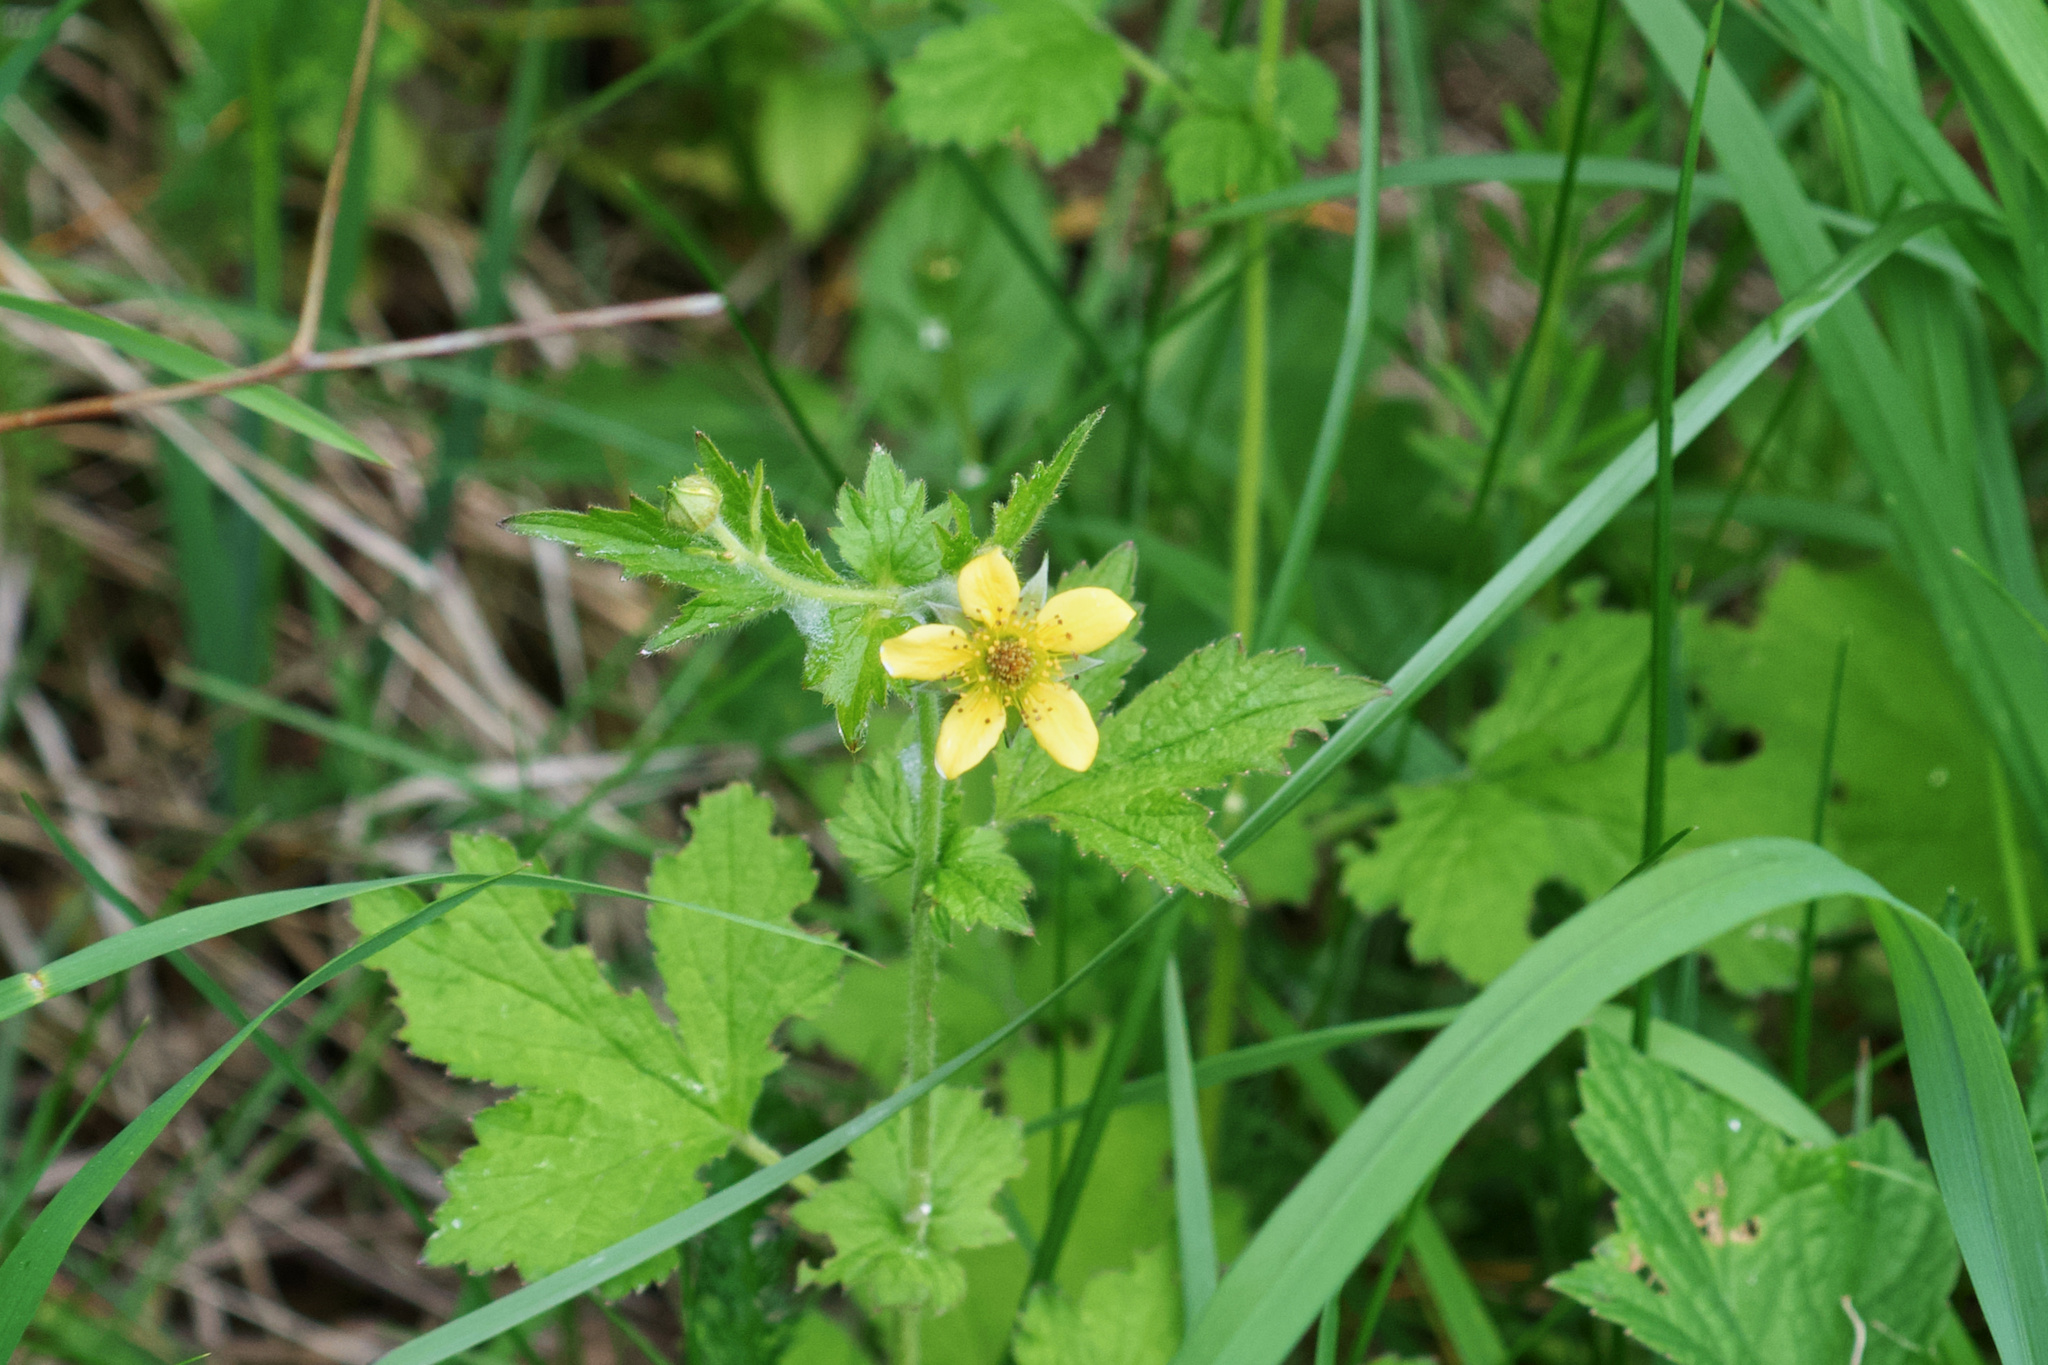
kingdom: Plantae
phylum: Tracheophyta
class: Magnoliopsida
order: Rosales
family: Rosaceae
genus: Geum
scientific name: Geum urbanum
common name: Wood avens
